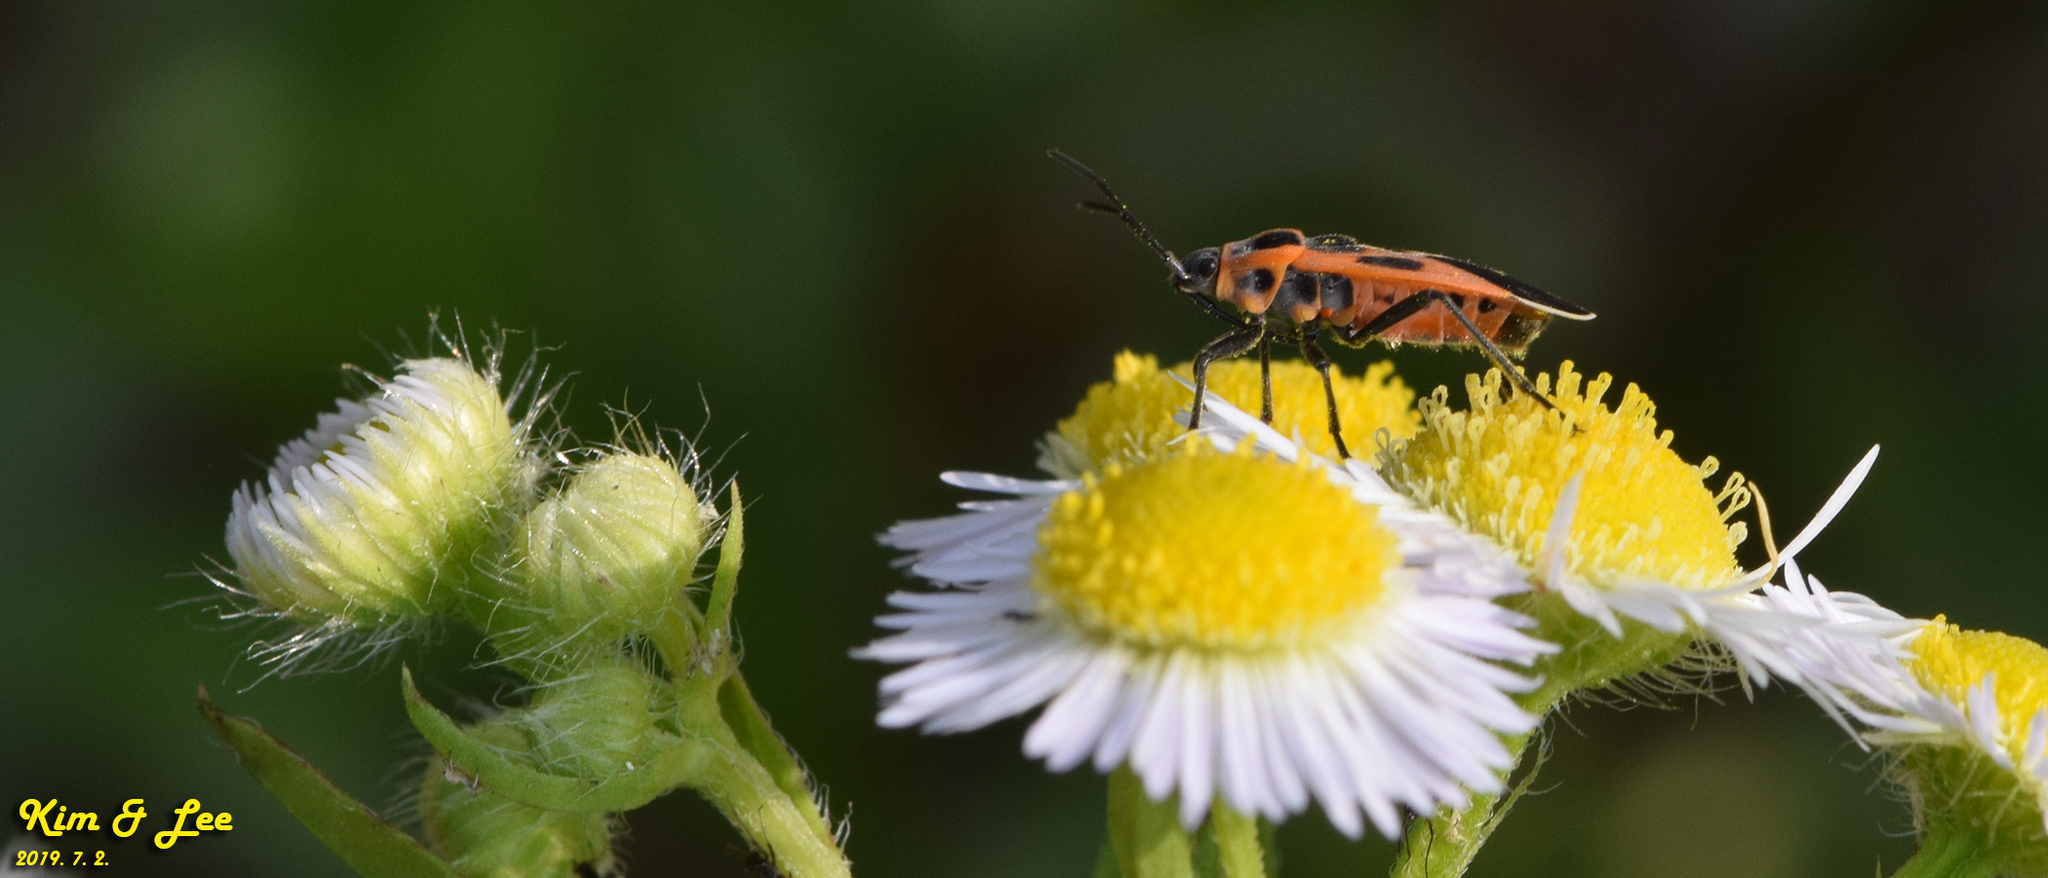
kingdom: Animalia
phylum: Arthropoda
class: Insecta
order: Hemiptera
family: Lygaeidae
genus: Tropidothorax
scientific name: Tropidothorax cruciger
